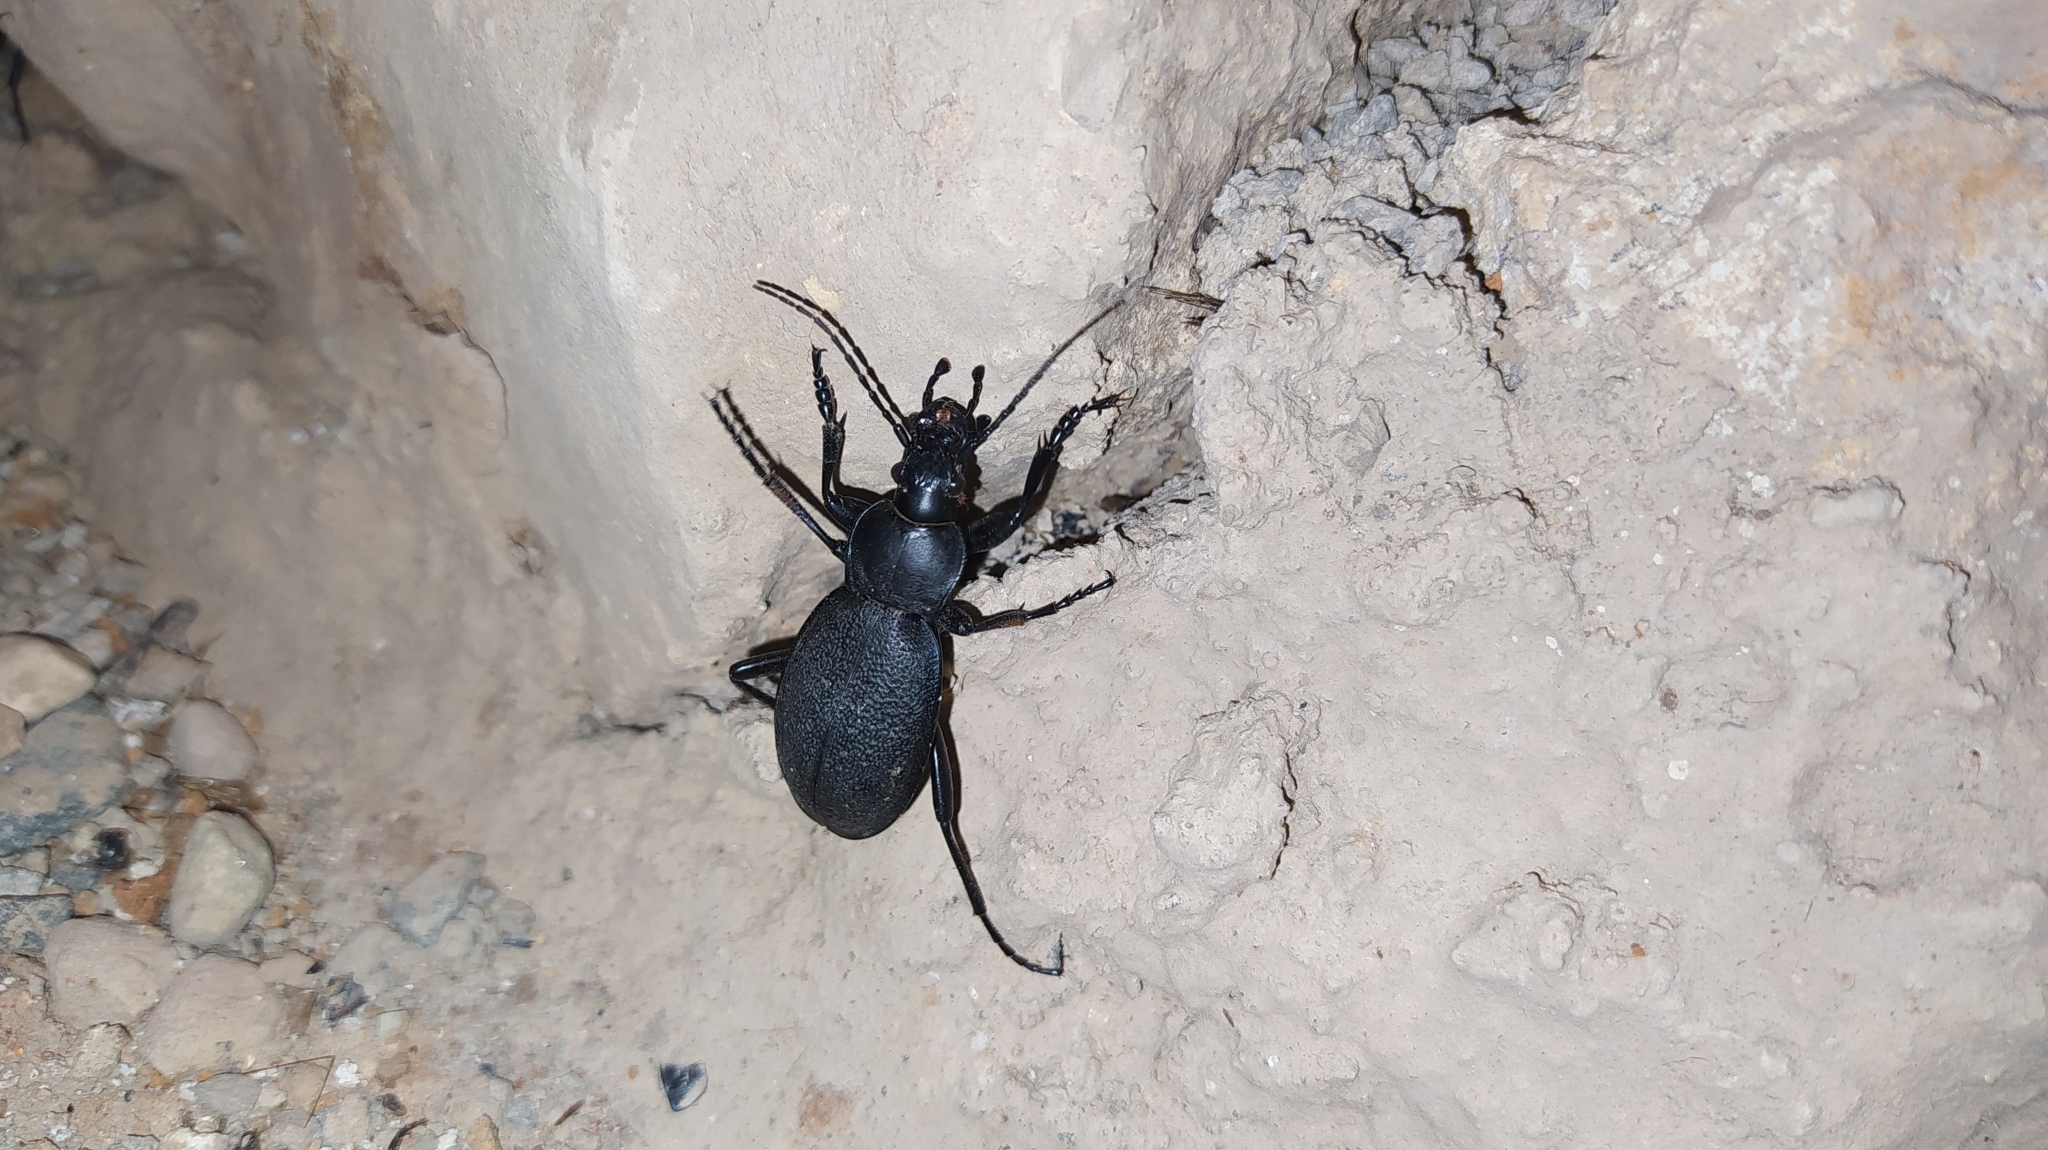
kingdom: Animalia
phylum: Arthropoda
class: Insecta
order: Coleoptera
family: Carabidae
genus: Carabus
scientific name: Carabus coriaceus
